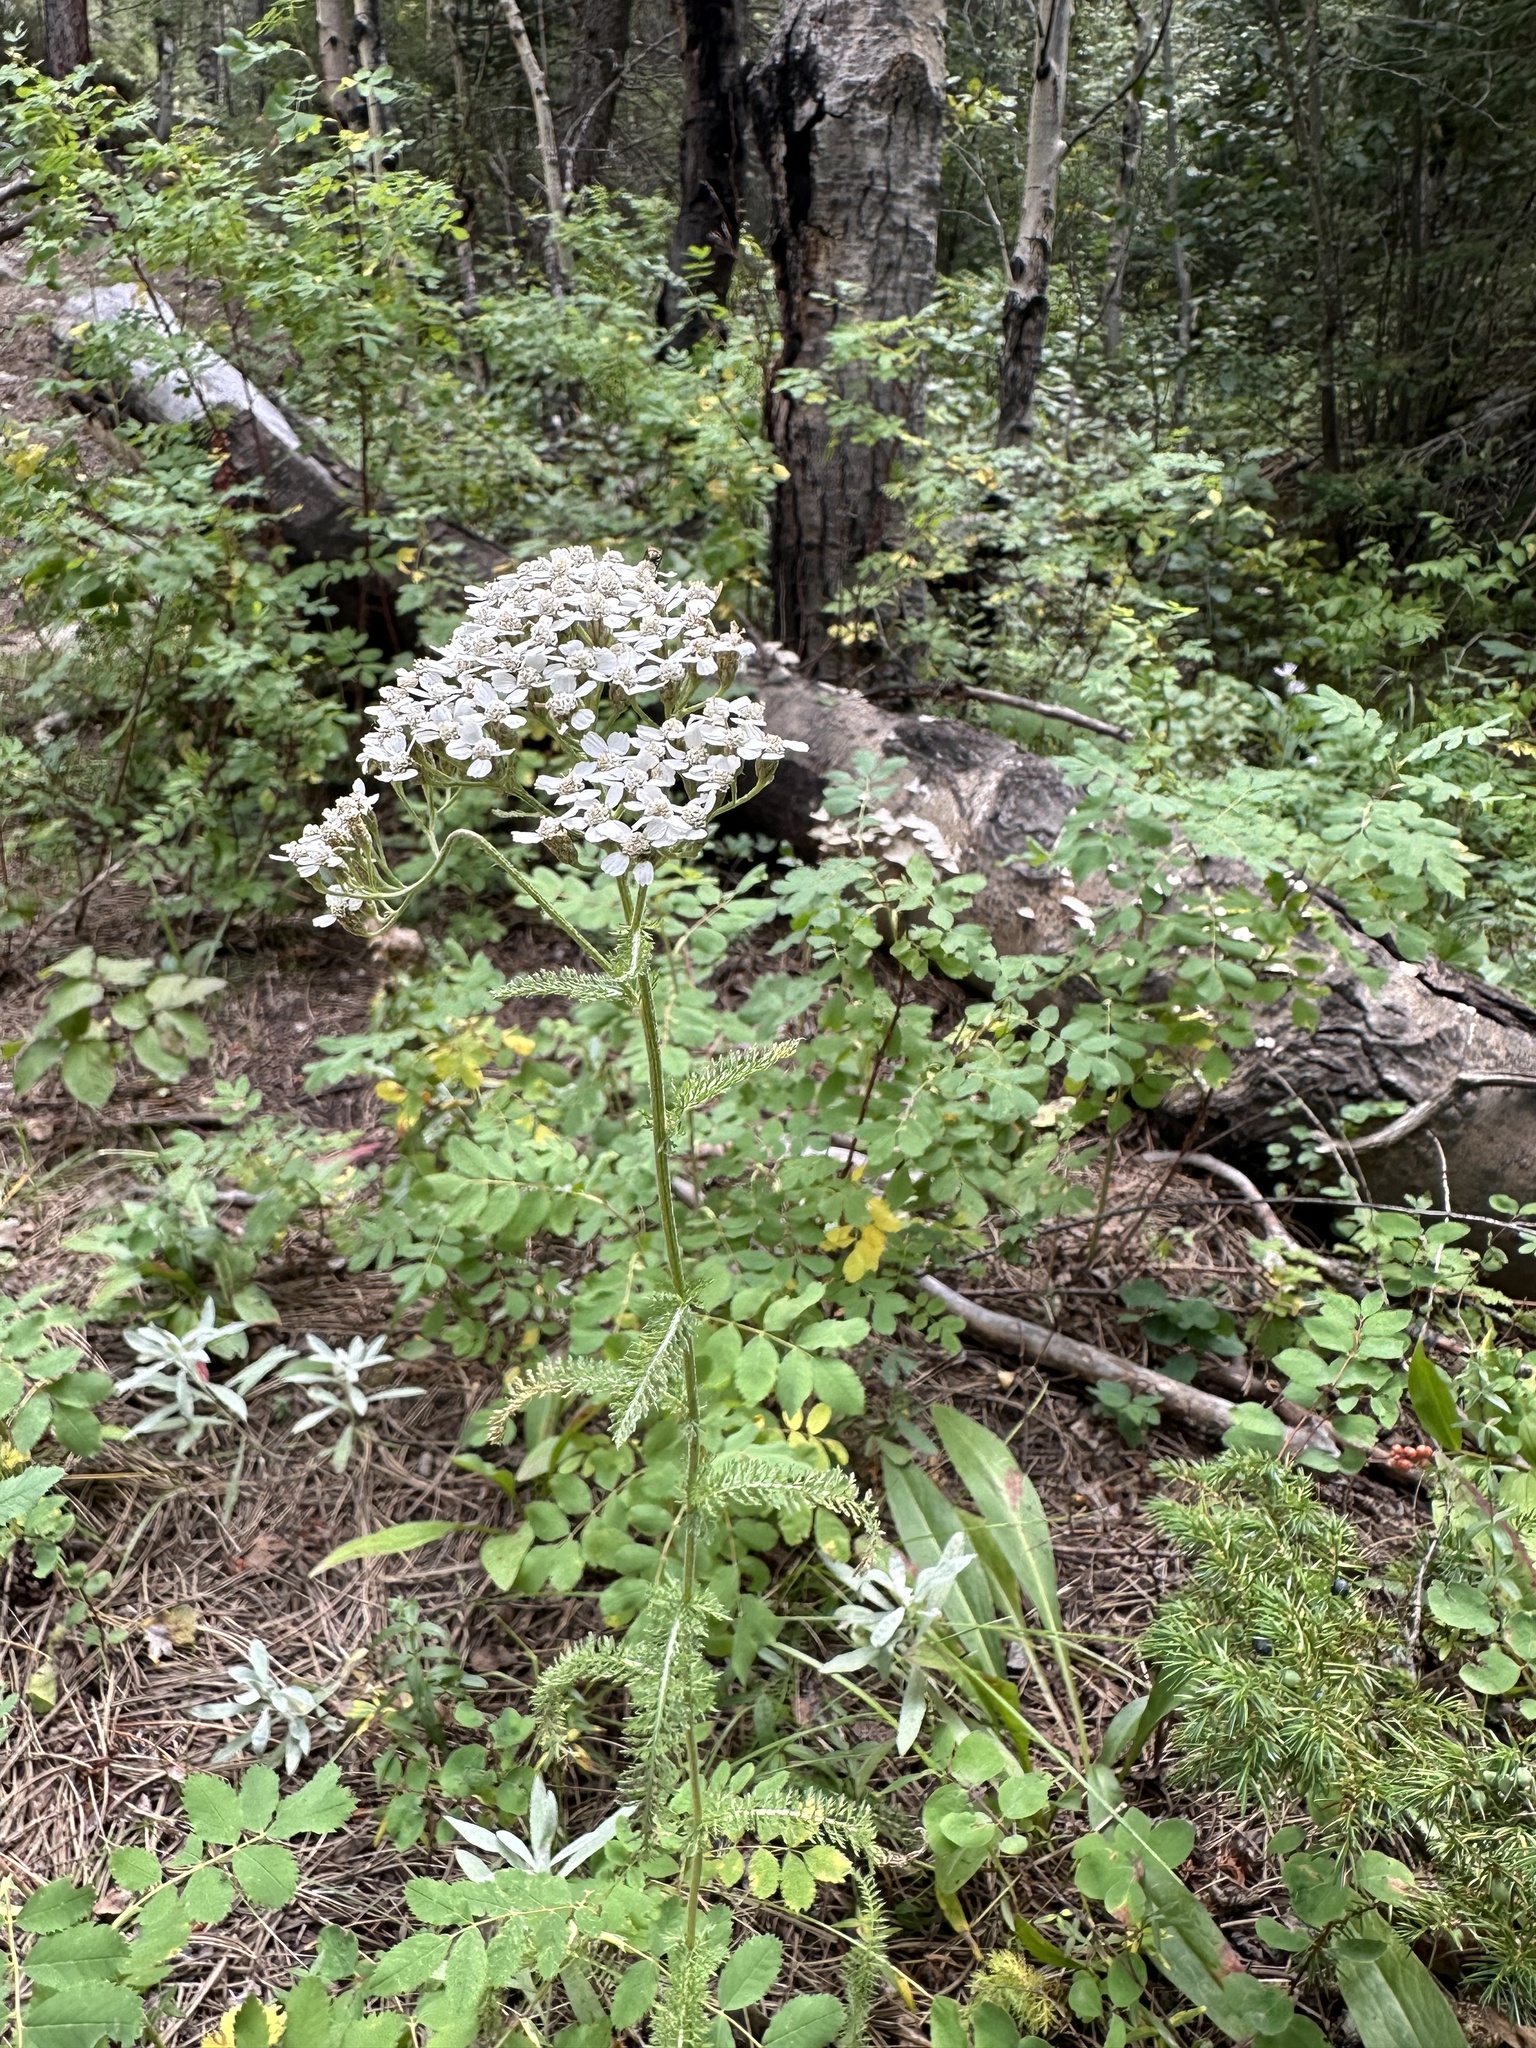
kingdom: Plantae
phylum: Tracheophyta
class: Magnoliopsida
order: Asterales
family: Asteraceae
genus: Achillea
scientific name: Achillea millefolium
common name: Yarrow
